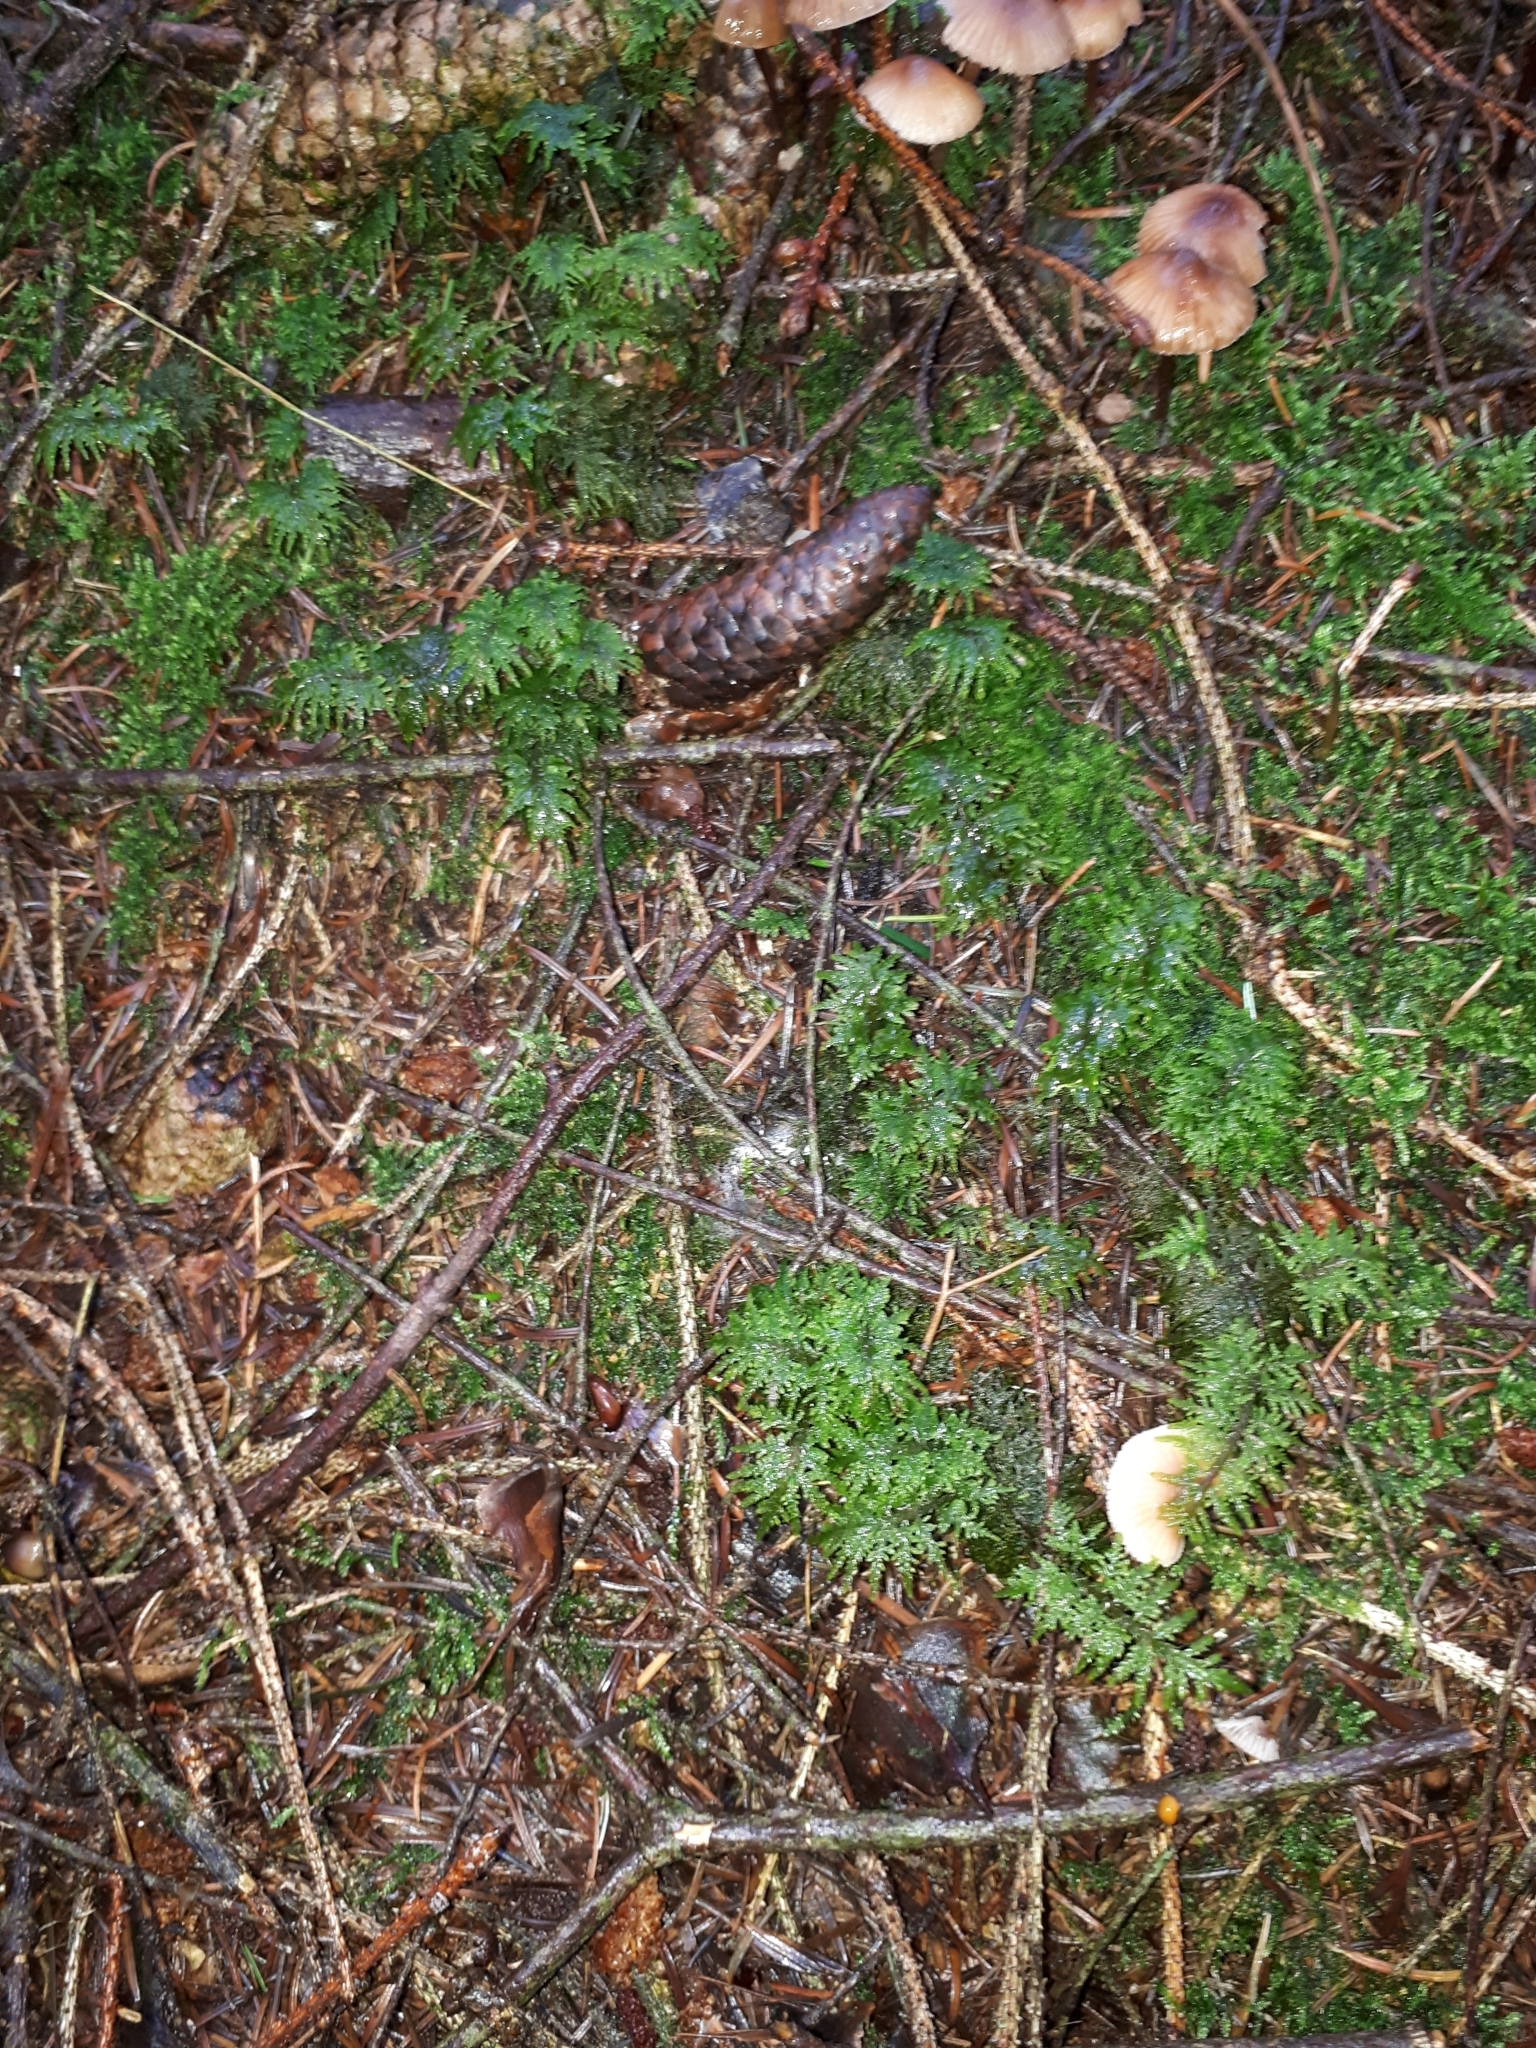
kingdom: Plantae
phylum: Bryophyta
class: Bryopsida
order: Hypnales
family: Hylocomiaceae
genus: Hylocomium
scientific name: Hylocomium splendens
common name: Stairstep moss
